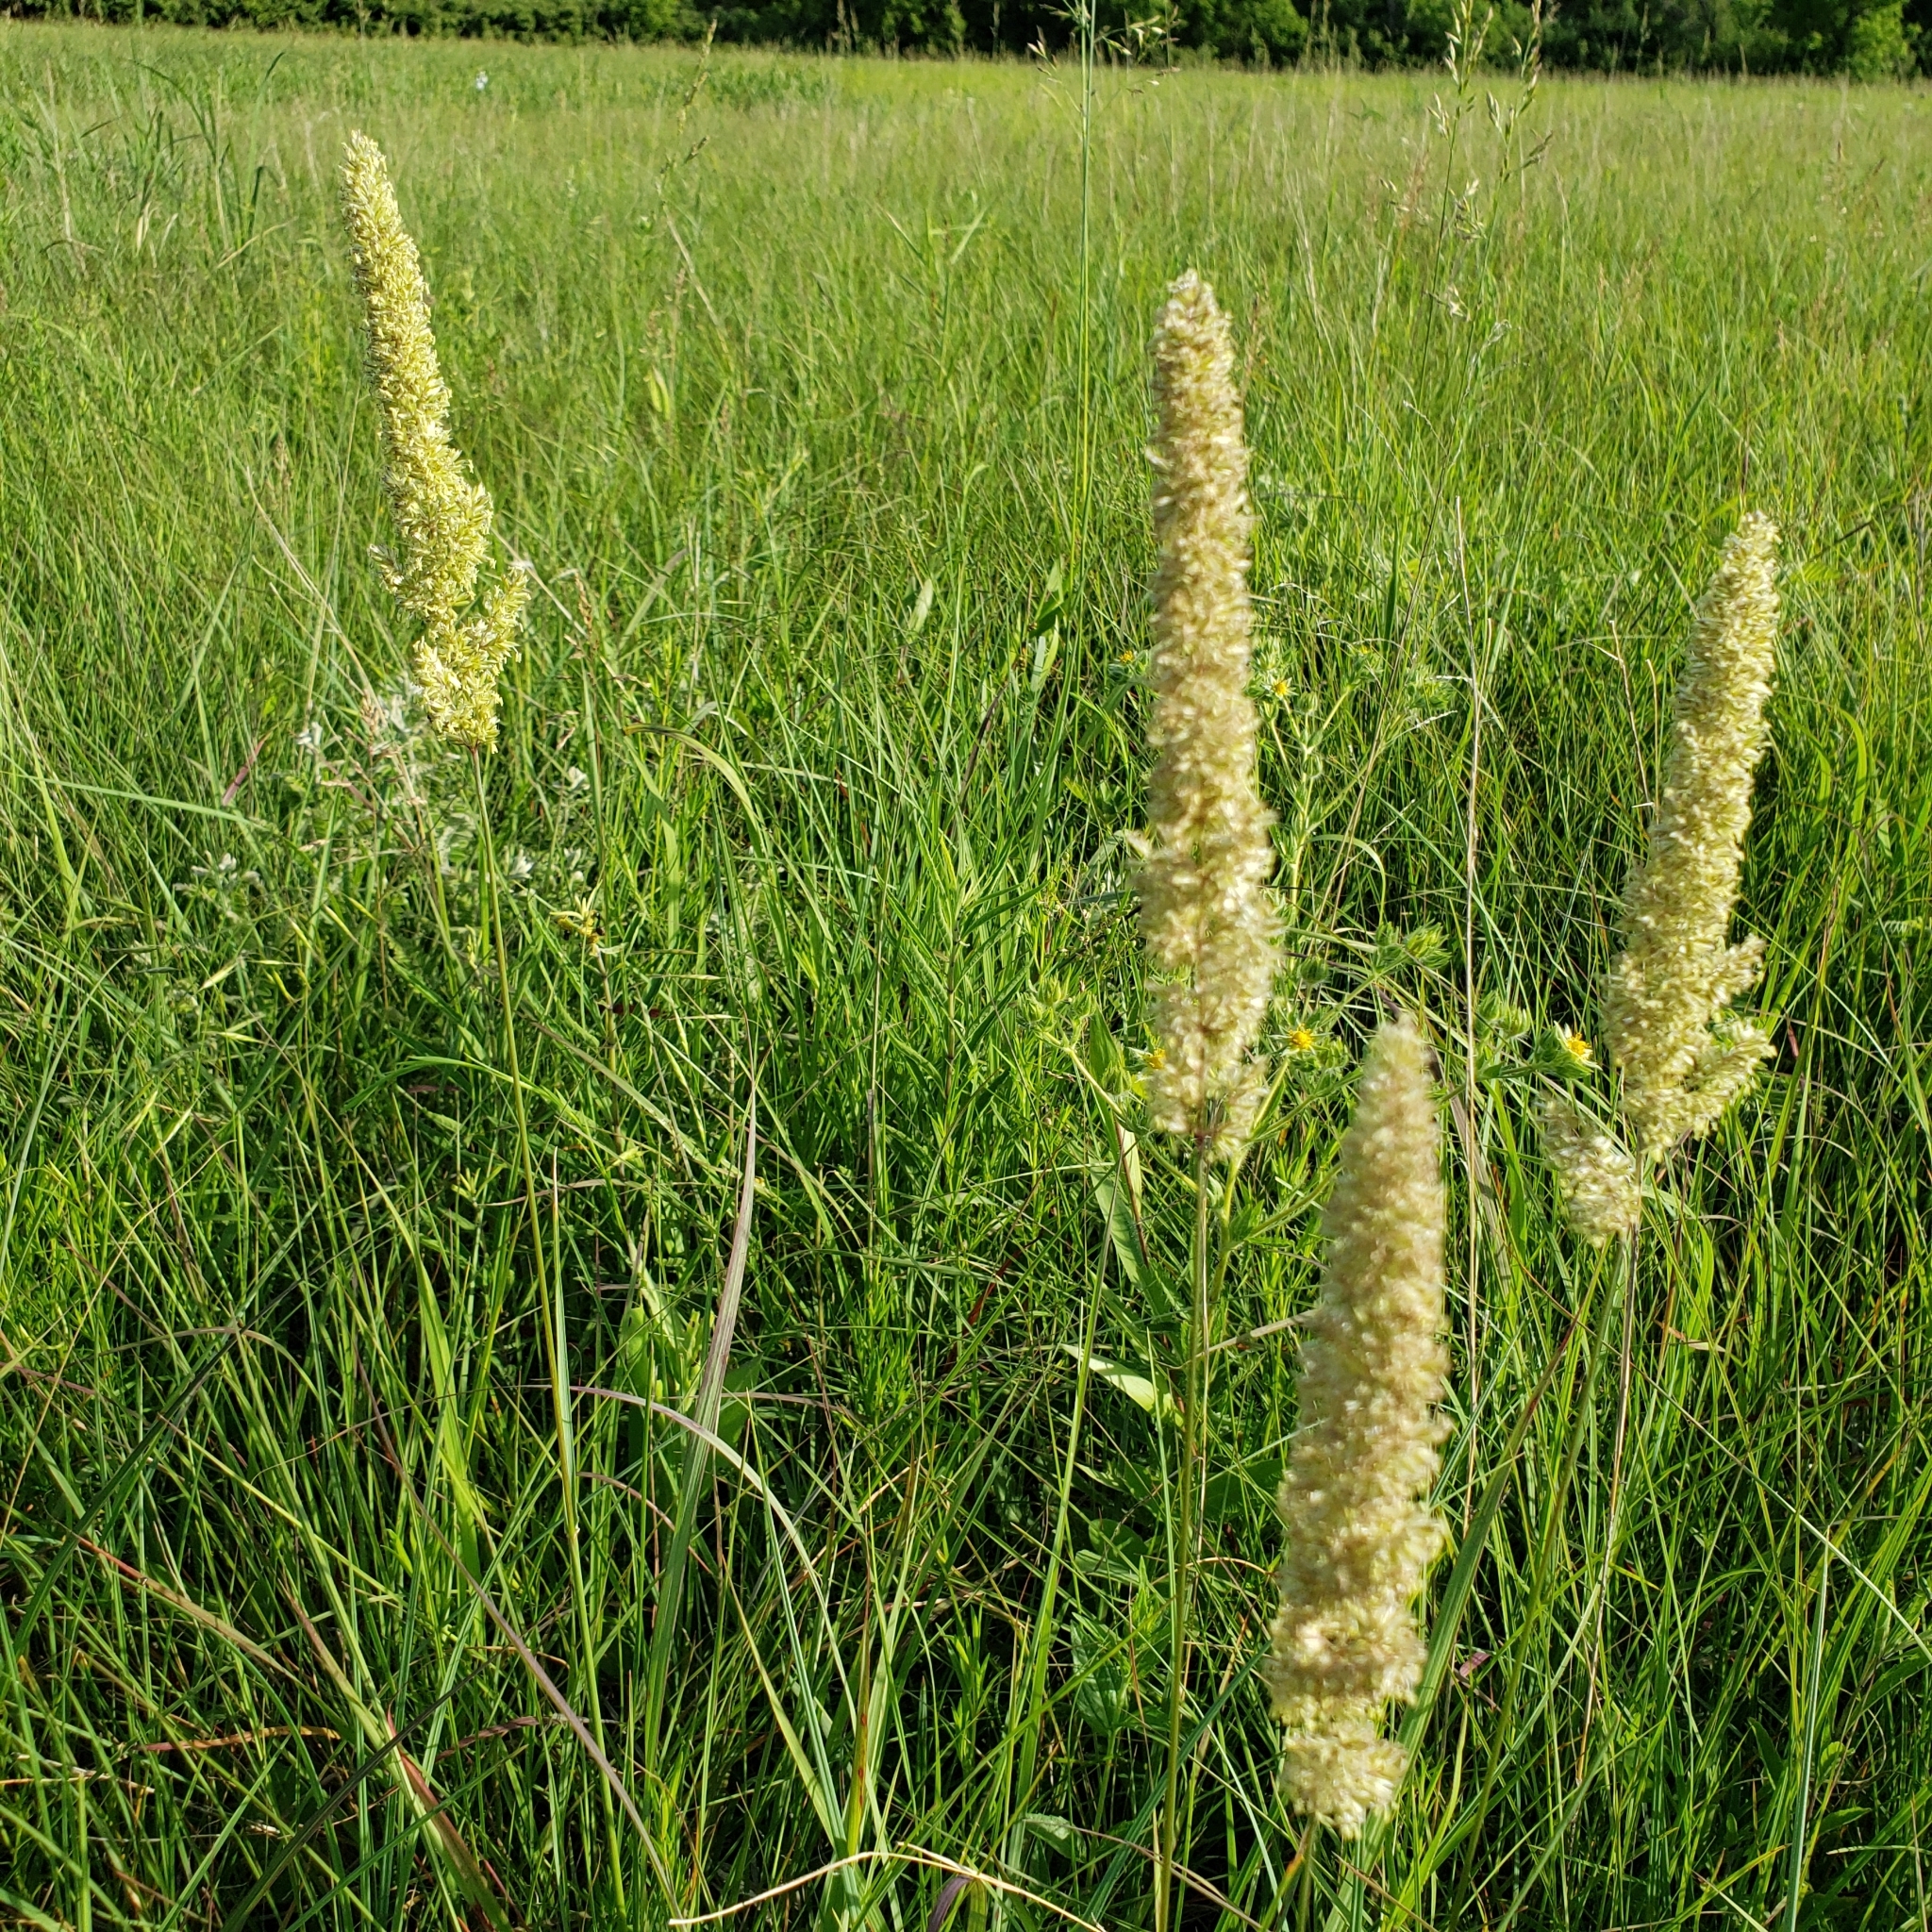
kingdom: Plantae
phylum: Tracheophyta
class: Liliopsida
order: Poales
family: Poaceae
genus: Koeleria
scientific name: Koeleria macrantha
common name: Crested hair-grass
